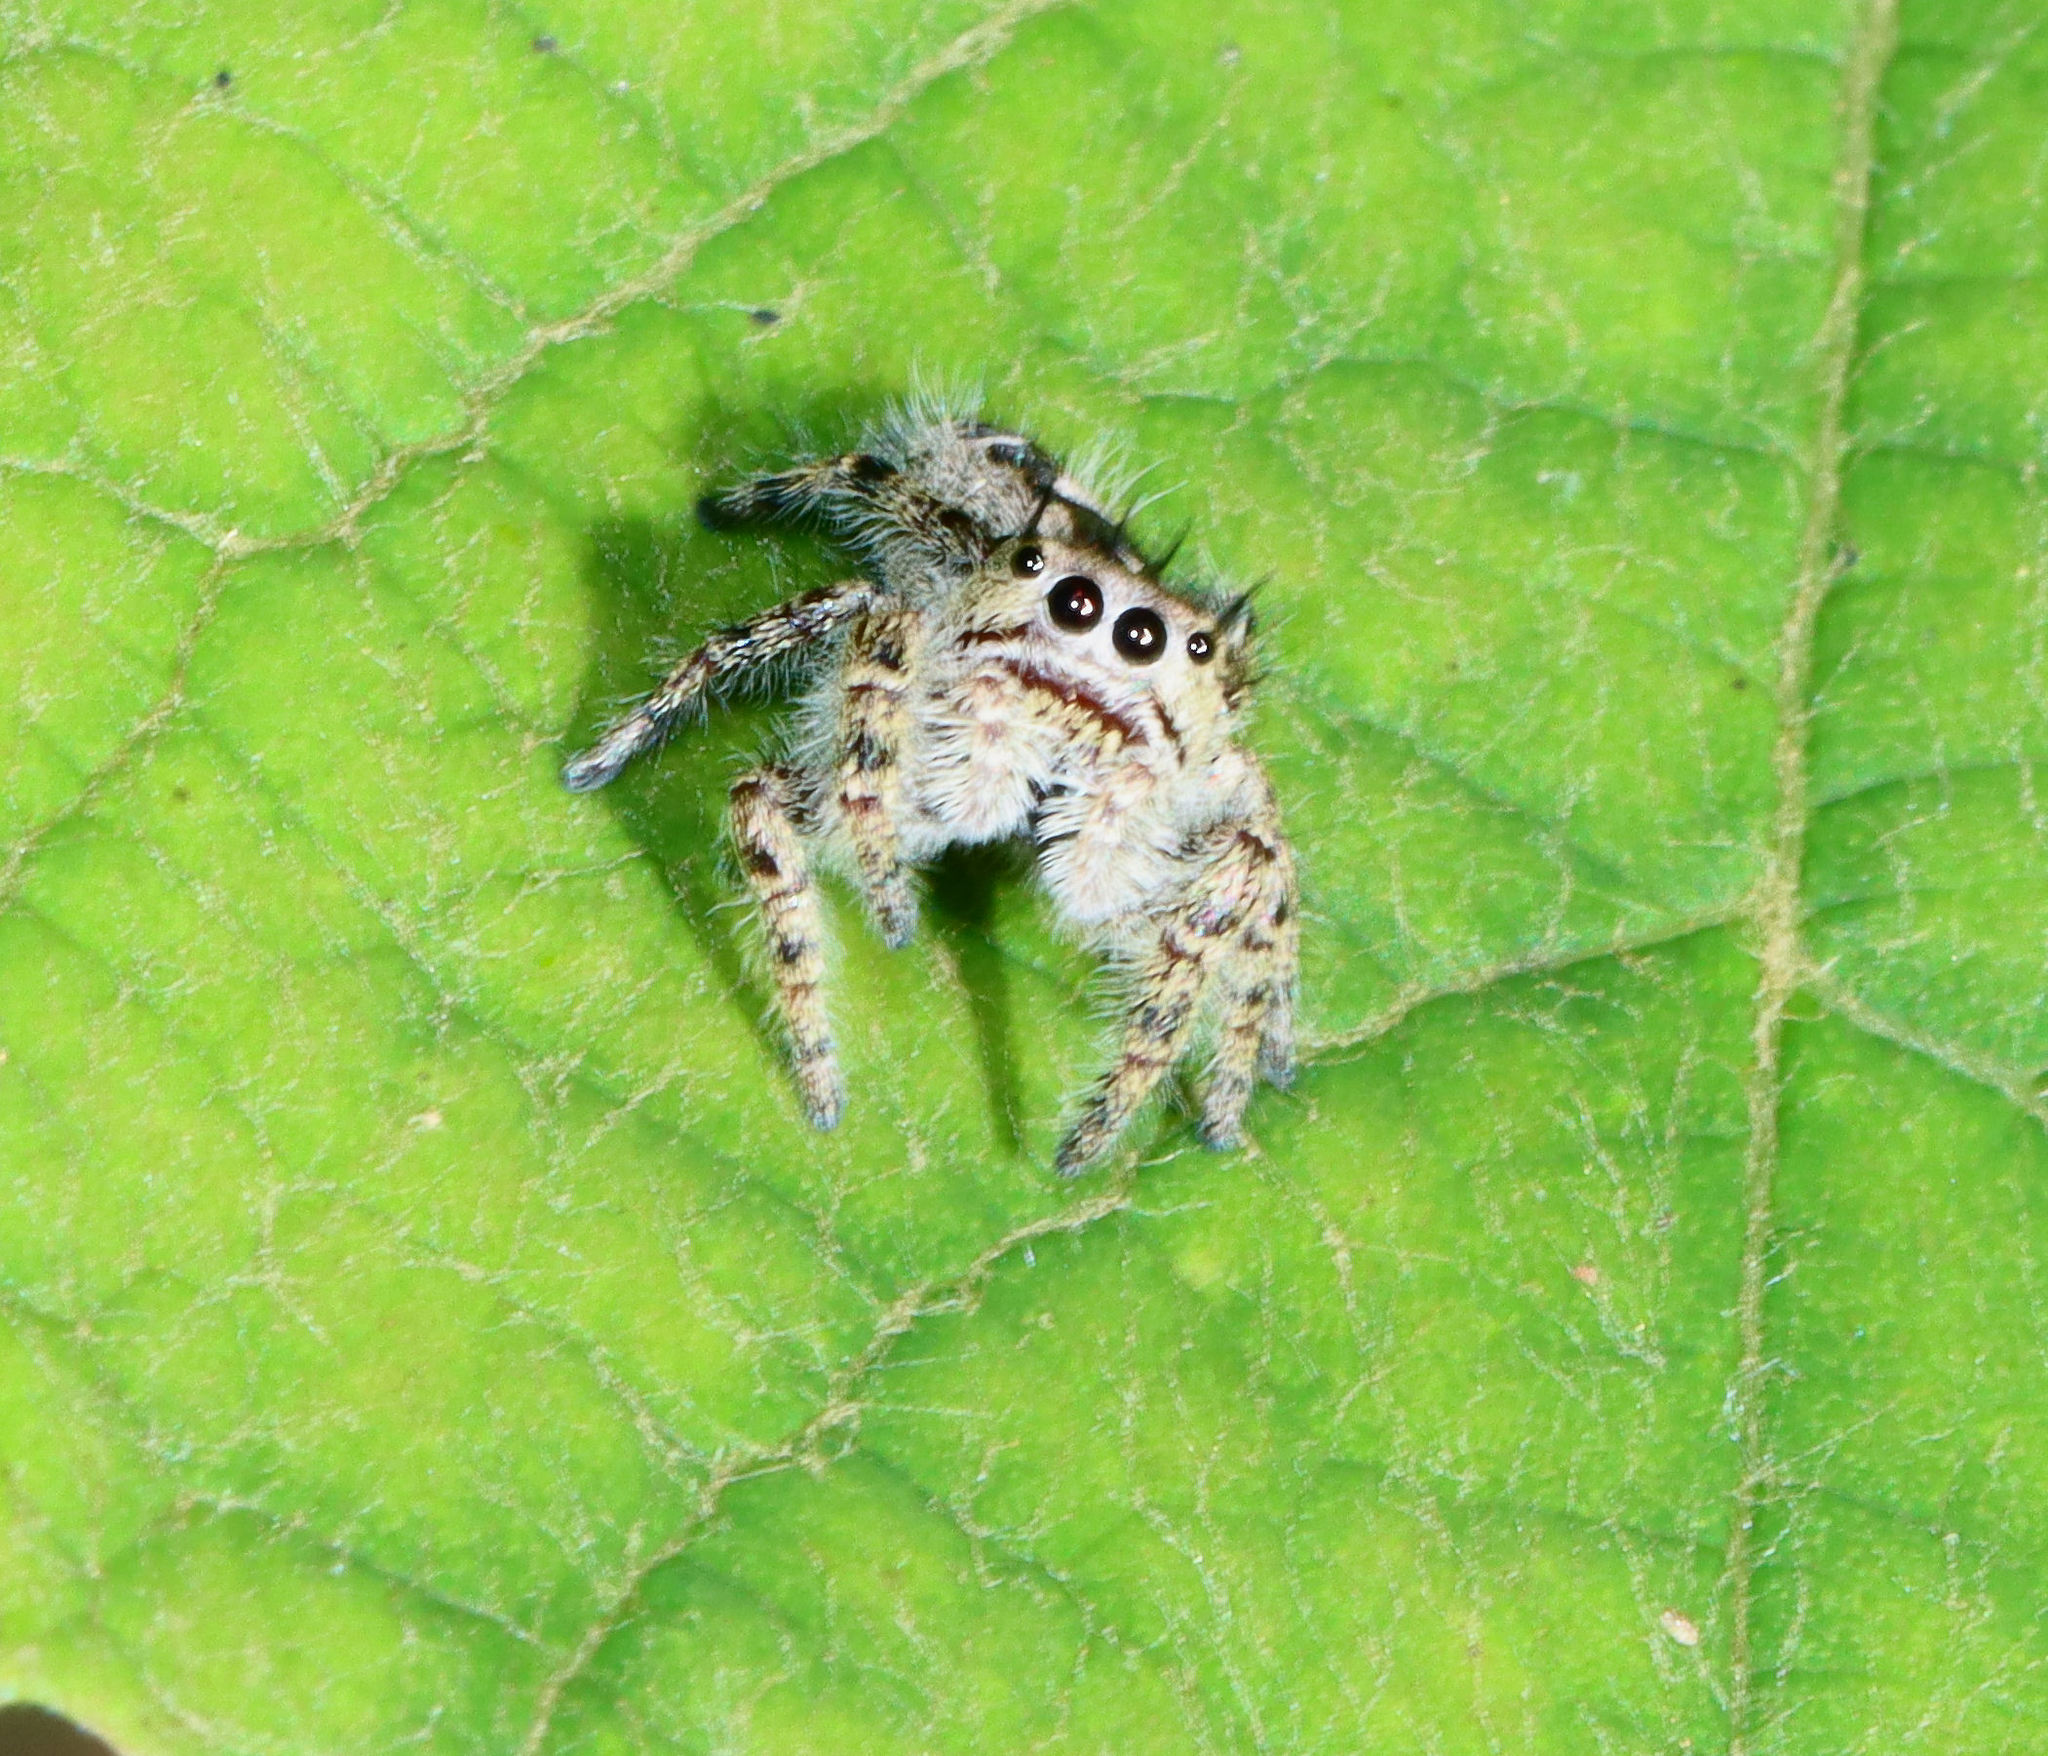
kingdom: Animalia
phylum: Arthropoda
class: Arachnida
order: Araneae
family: Salticidae
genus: Phidippus
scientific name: Phidippus putnami
